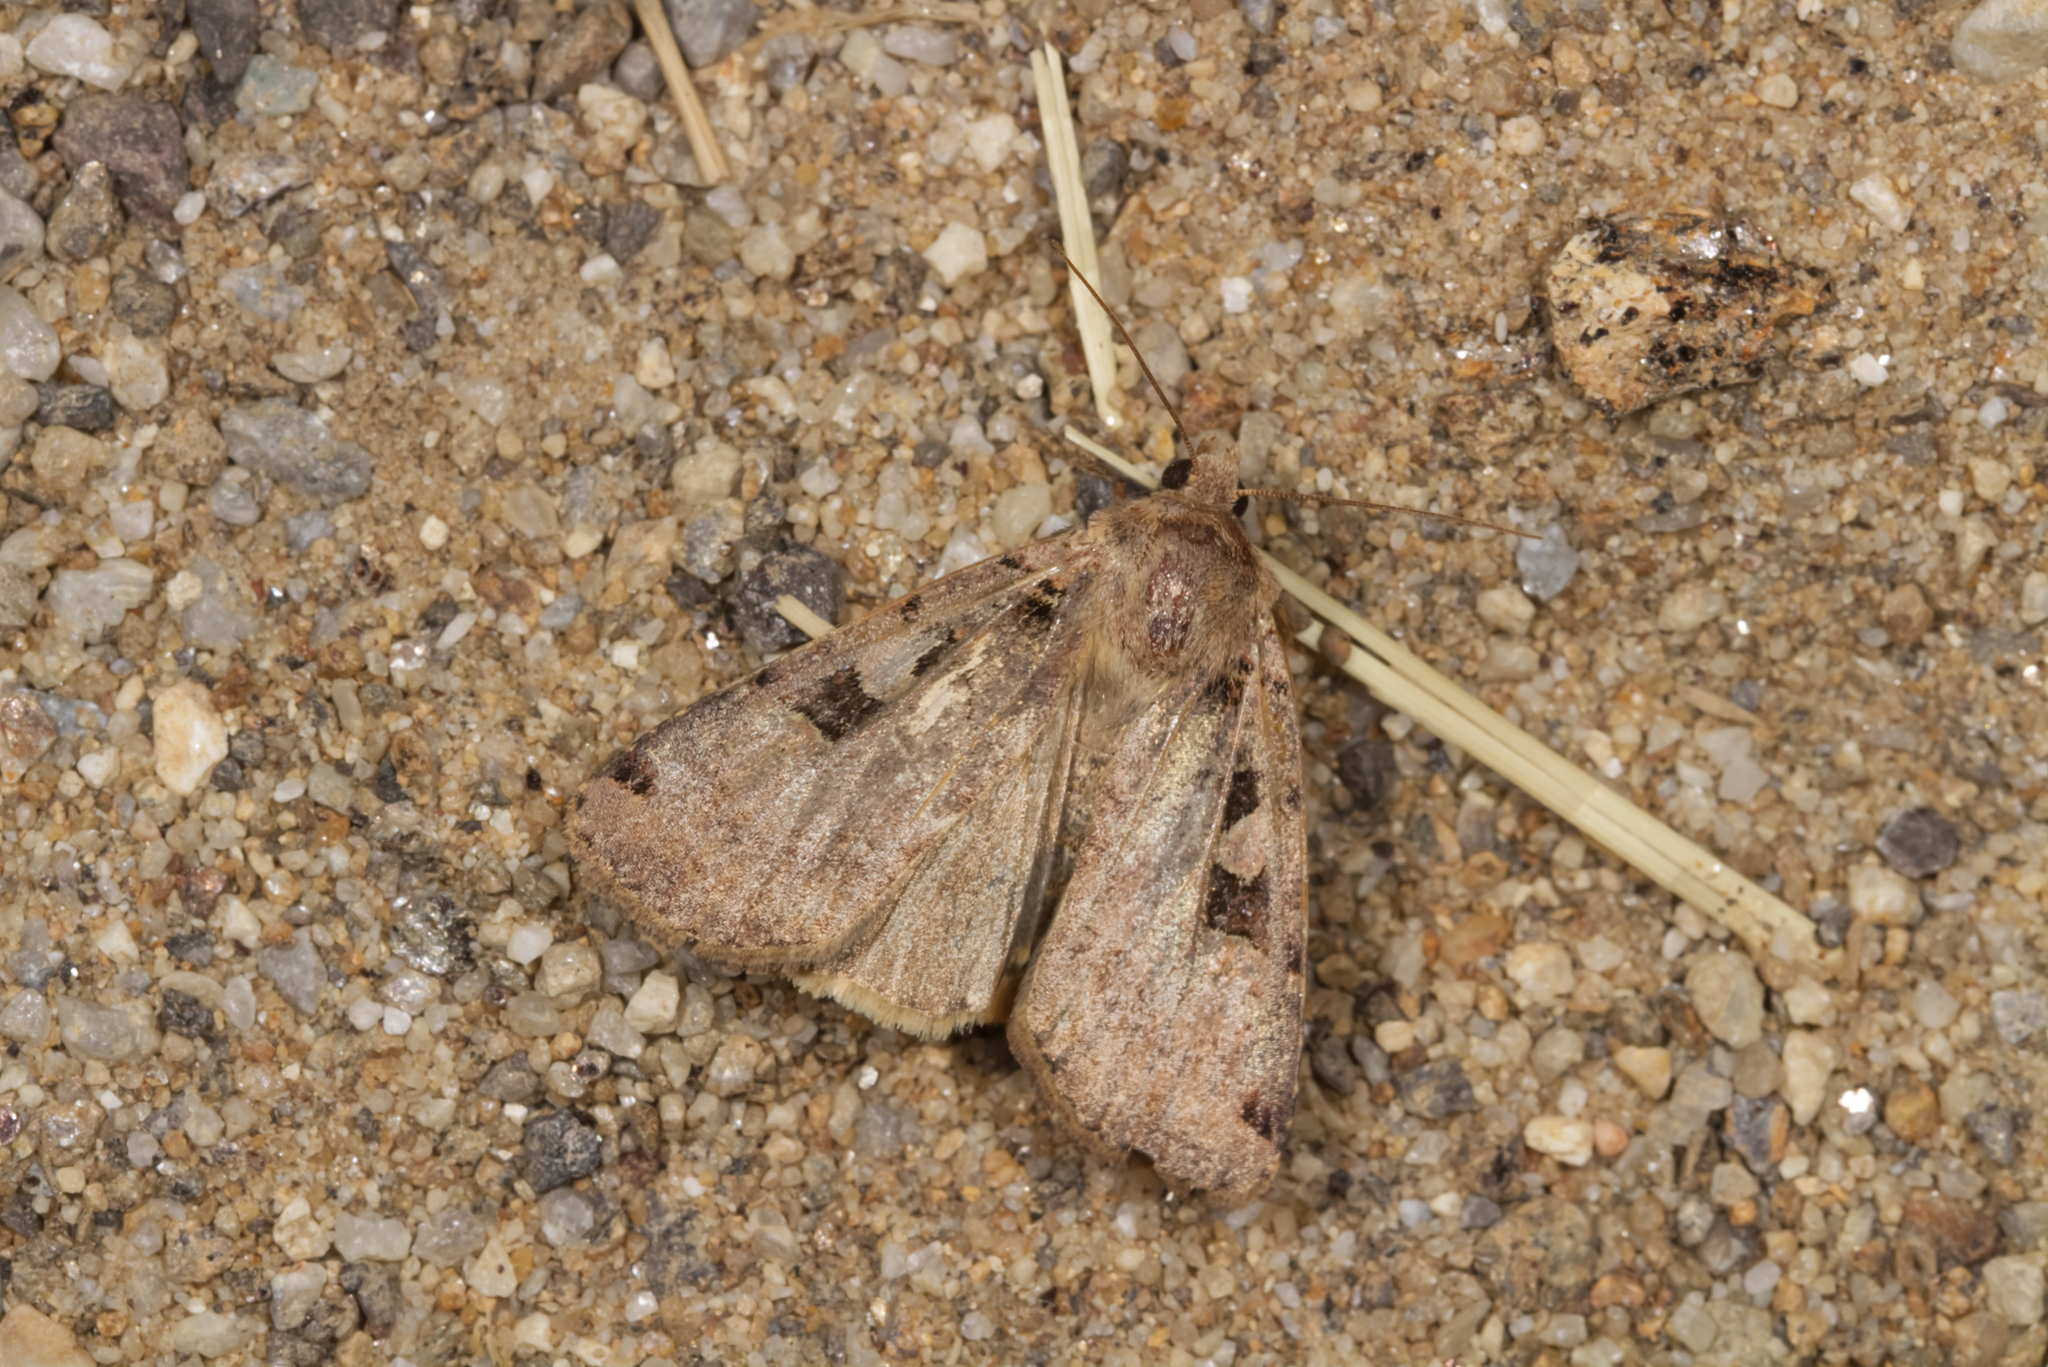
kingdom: Animalia
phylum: Arthropoda
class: Insecta
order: Lepidoptera
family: Noctuidae
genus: Xestia
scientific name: Xestia triangulum
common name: Double square-spot
